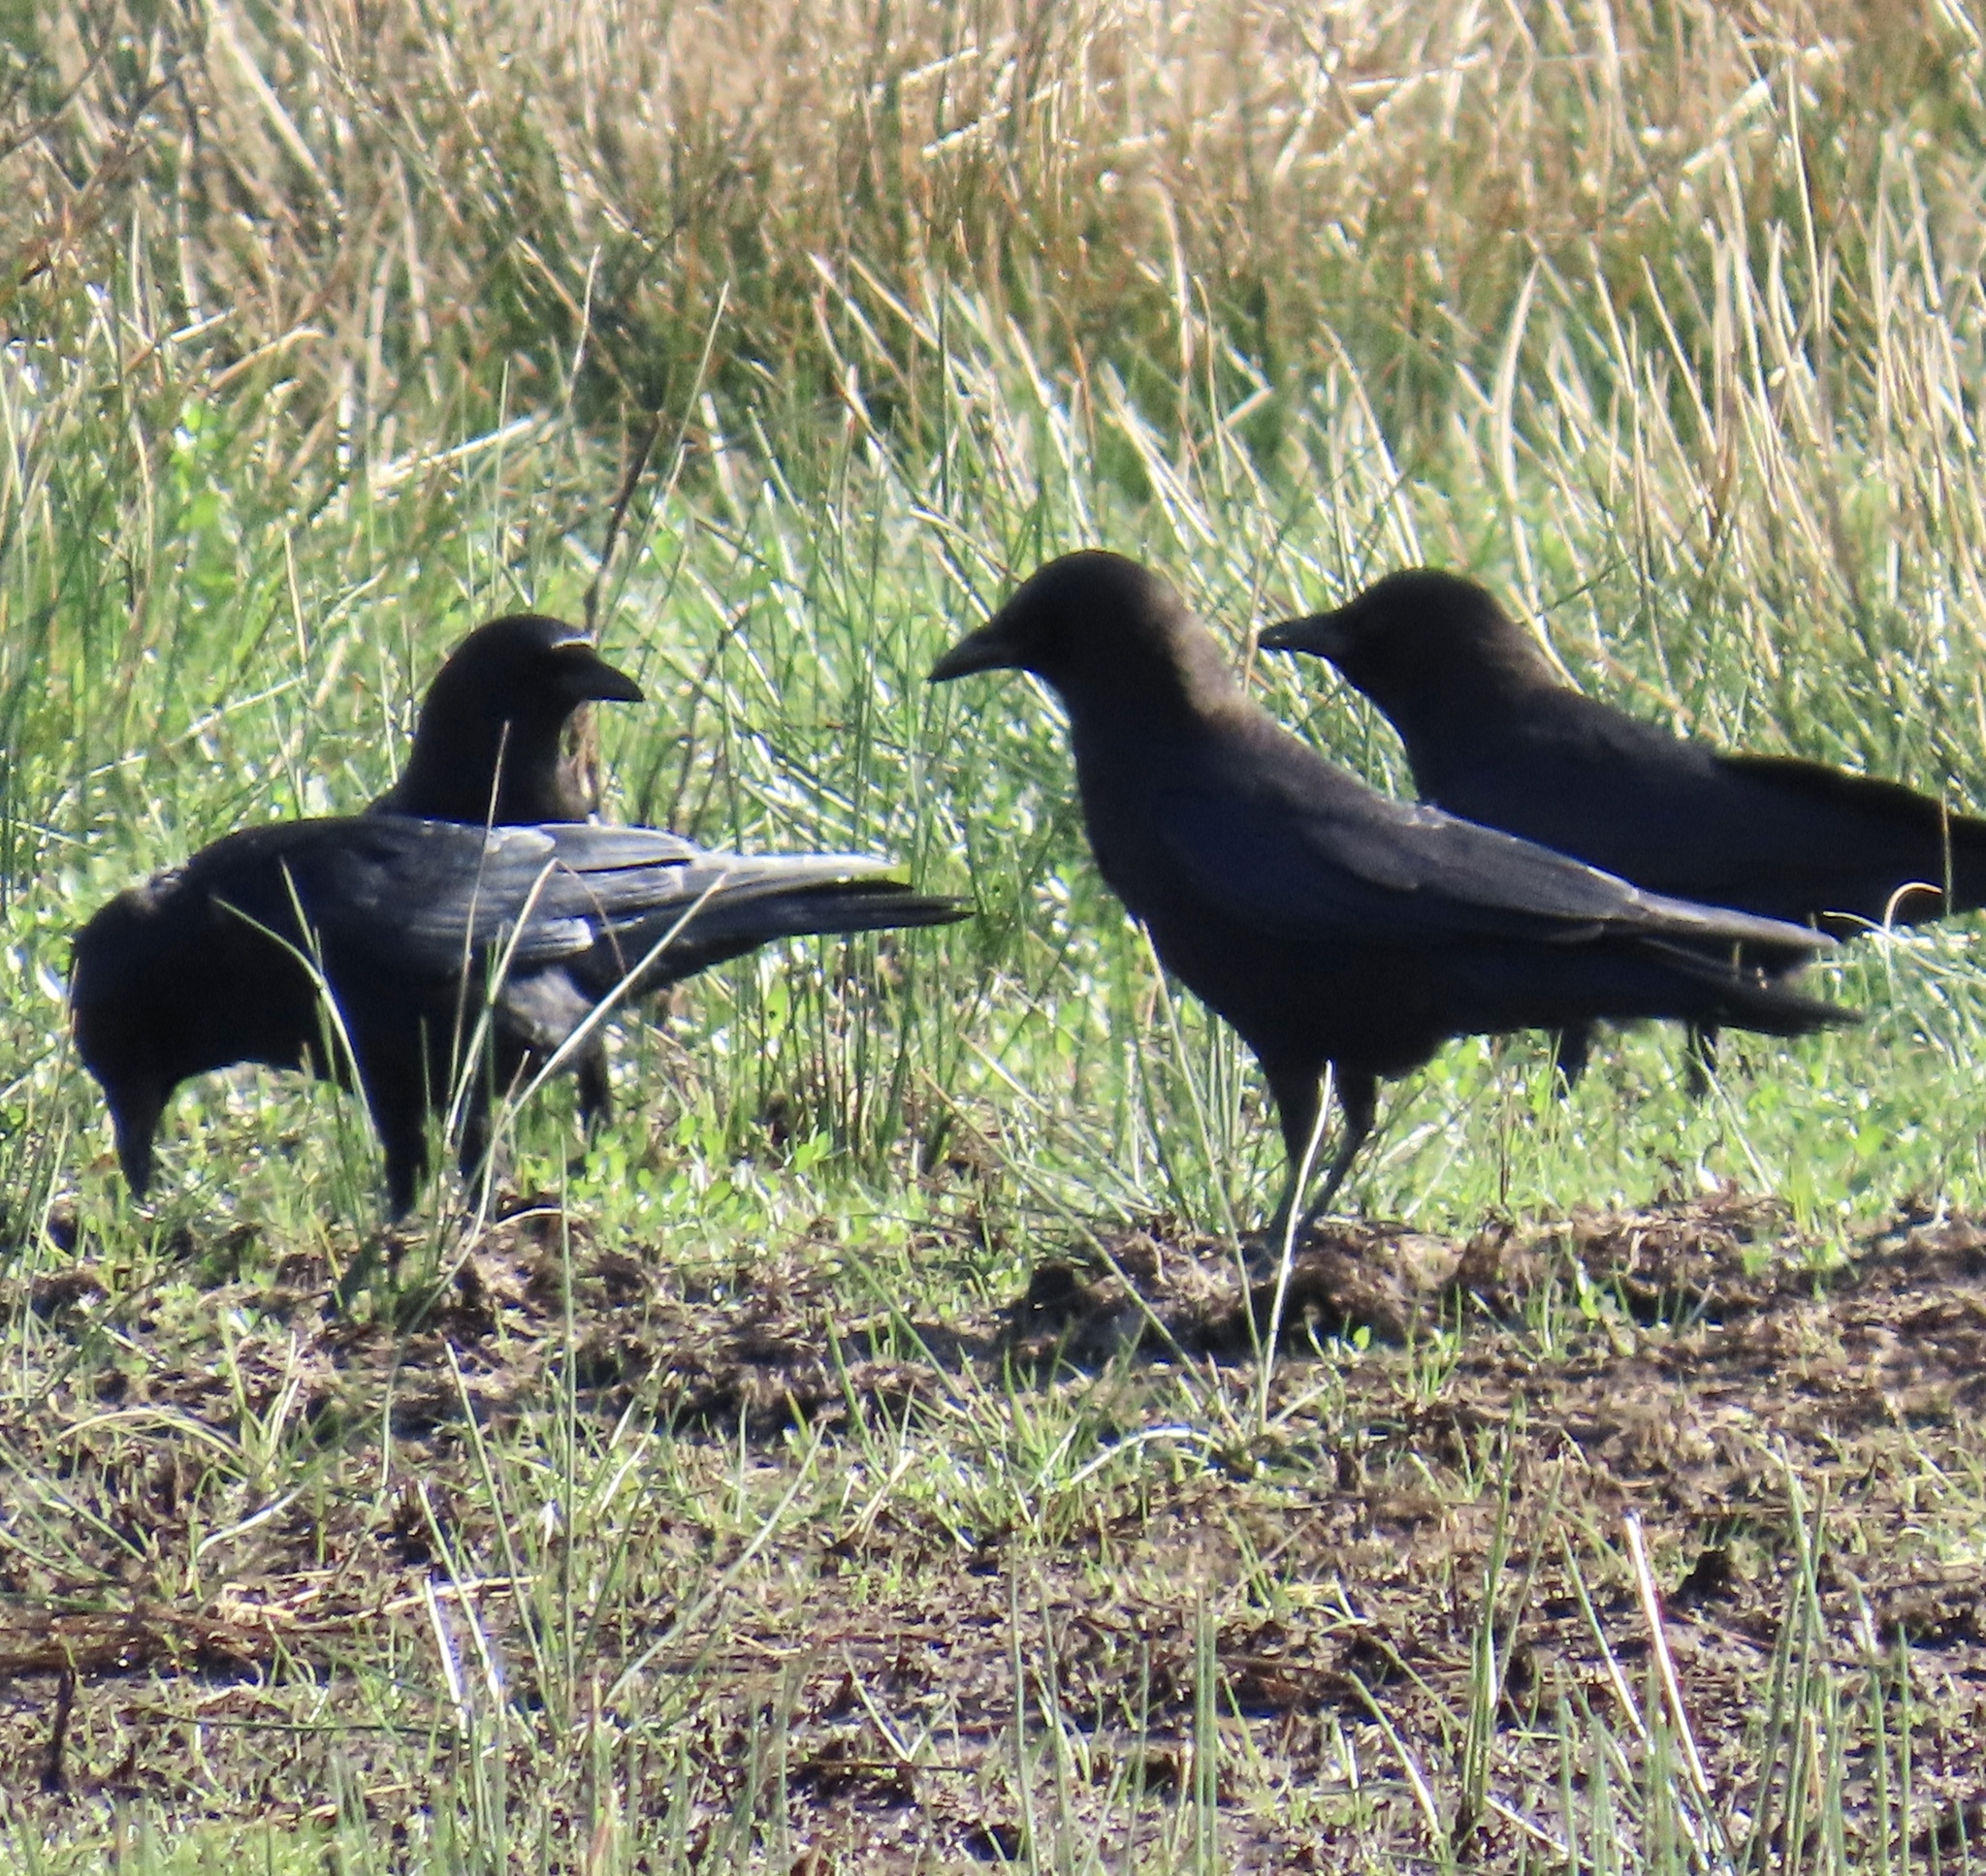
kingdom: Animalia
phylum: Chordata
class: Aves
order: Passeriformes
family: Corvidae
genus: Corvus
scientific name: Corvus brachyrhynchos
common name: American crow
